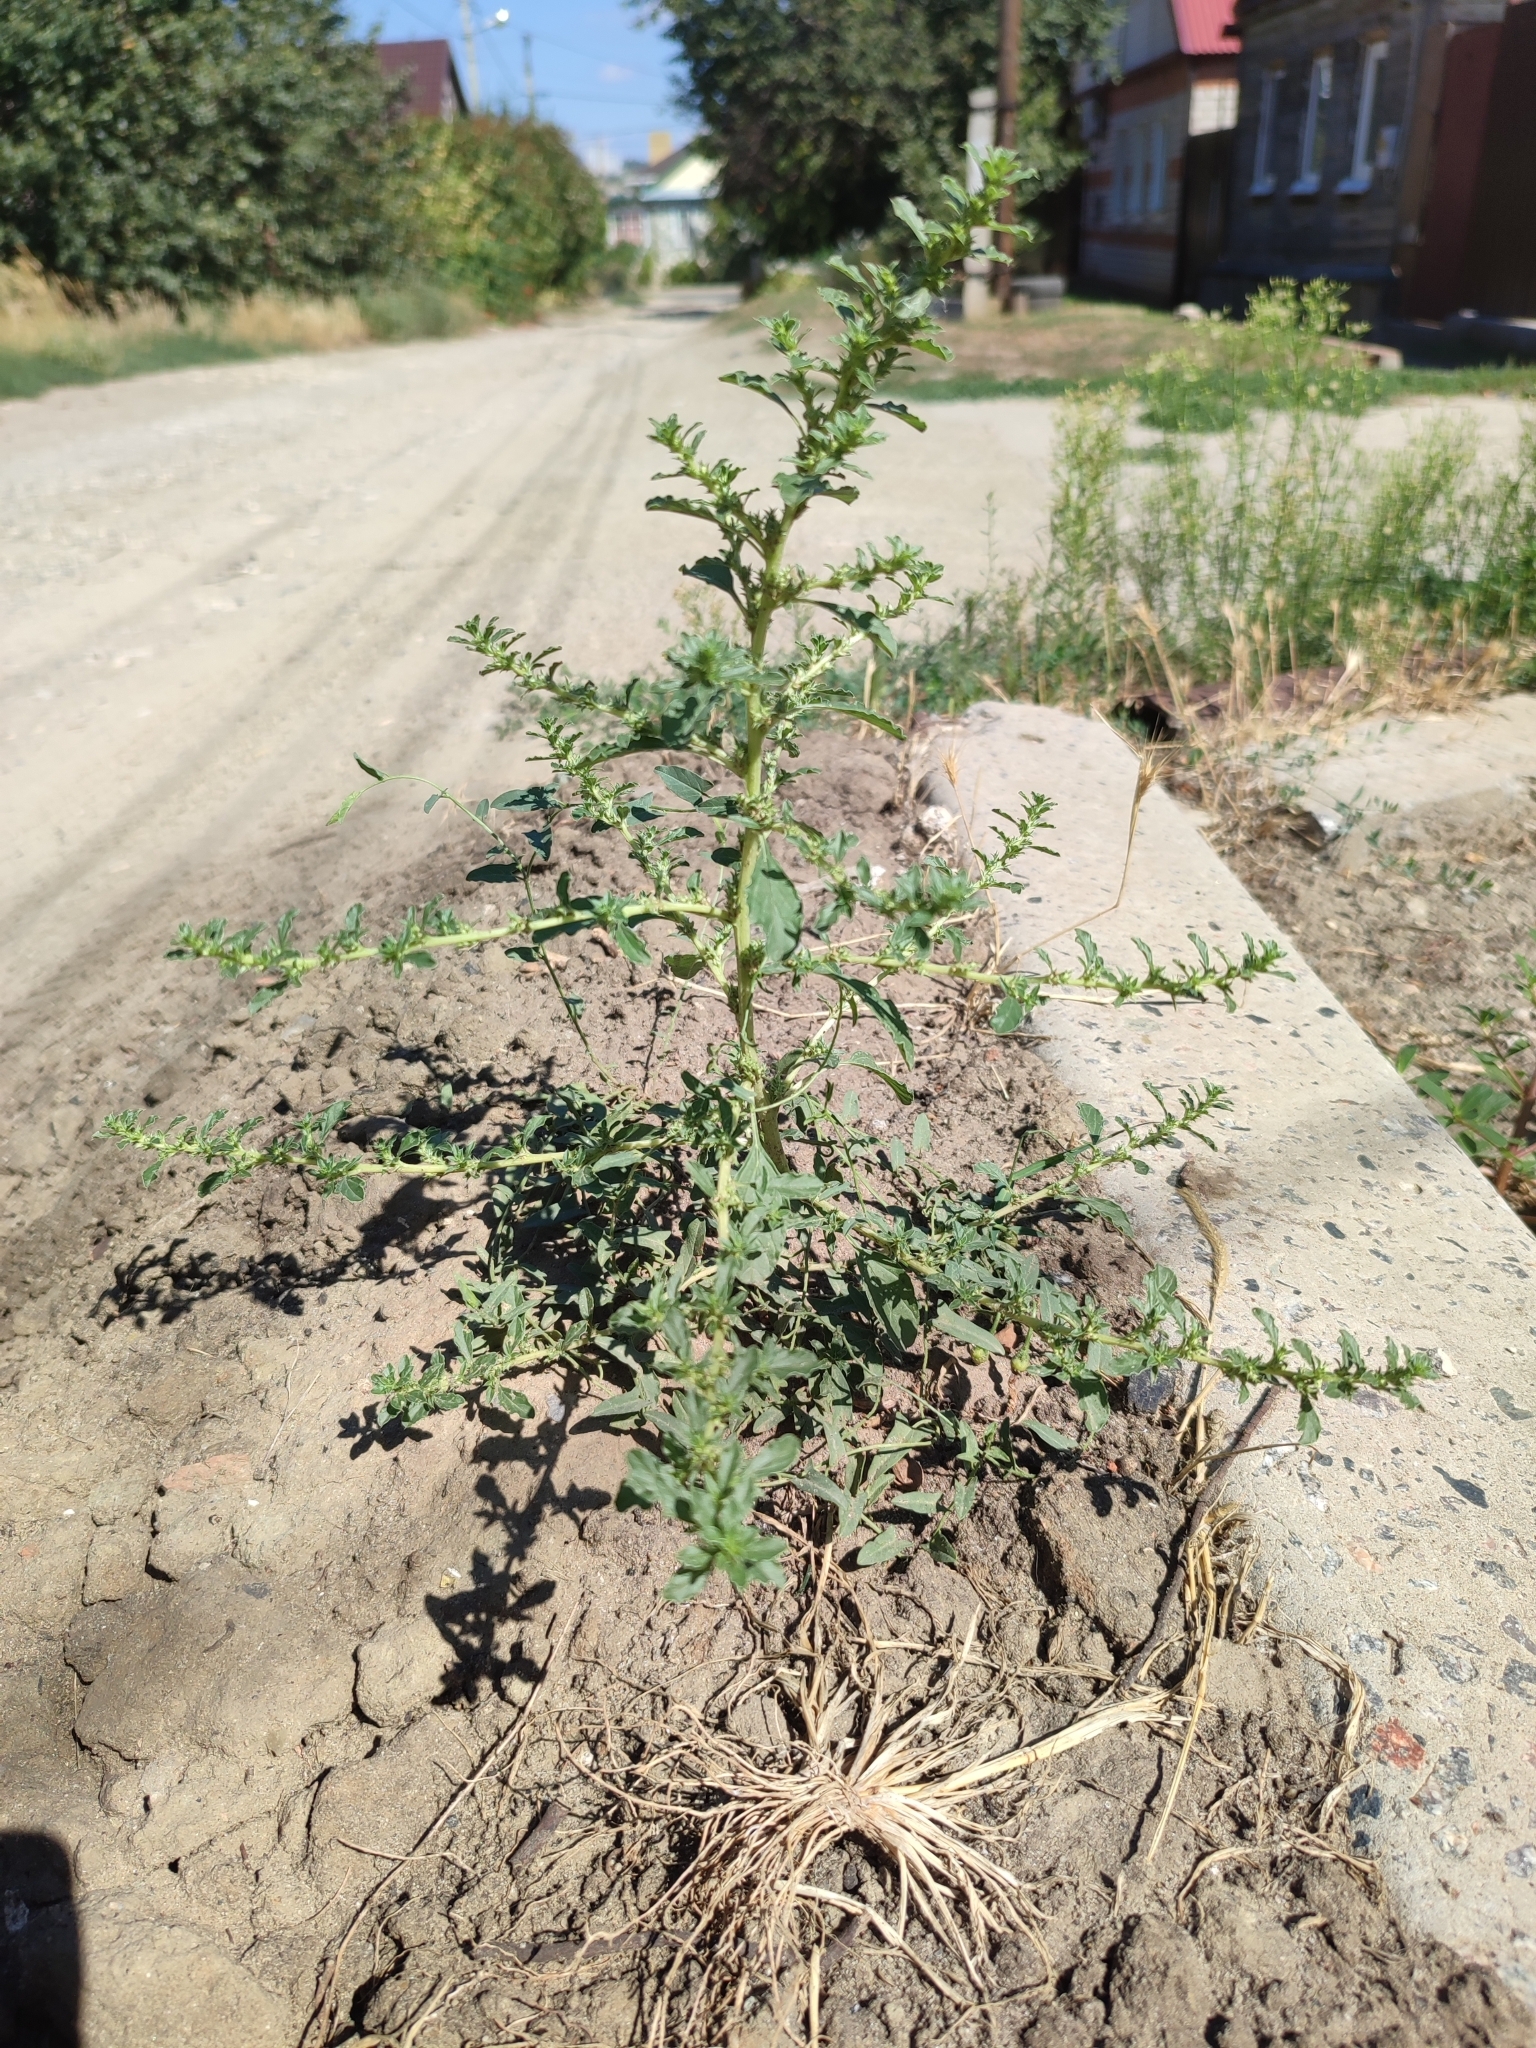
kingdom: Plantae
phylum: Tracheophyta
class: Magnoliopsida
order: Caryophyllales
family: Amaranthaceae
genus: Amaranthus
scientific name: Amaranthus albus
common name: White pigweed
